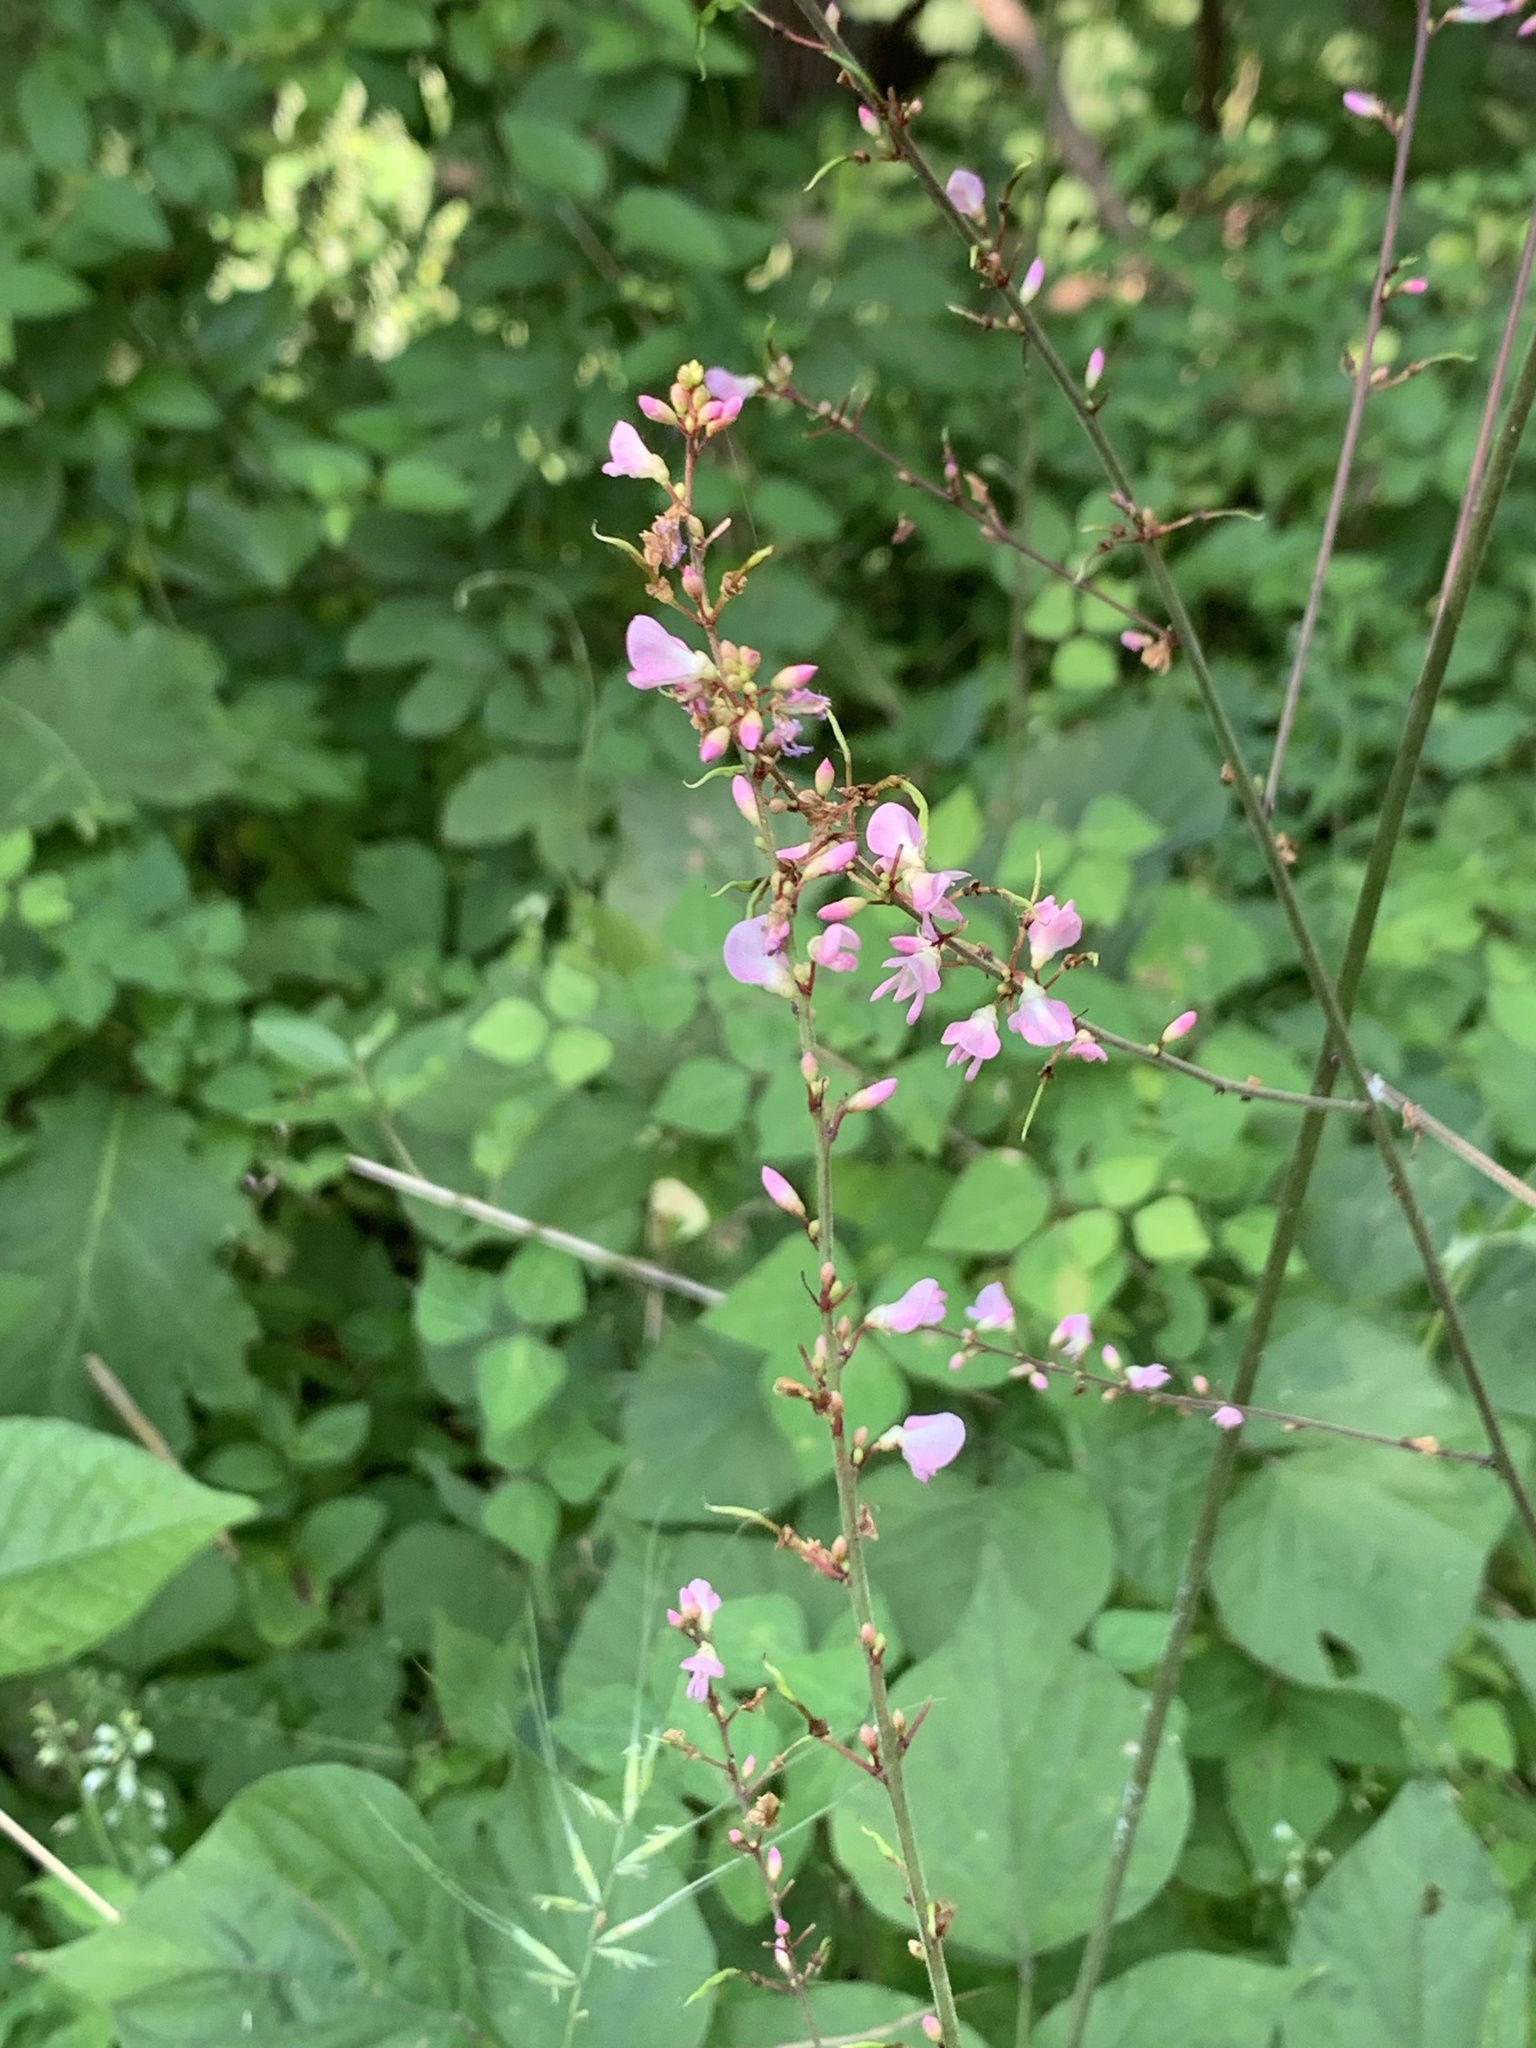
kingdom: Plantae
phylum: Tracheophyta
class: Magnoliopsida
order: Fabales
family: Fabaceae
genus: Hylodesmum
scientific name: Hylodesmum glutinosum
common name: Clustered-leaved tick-trefoil
